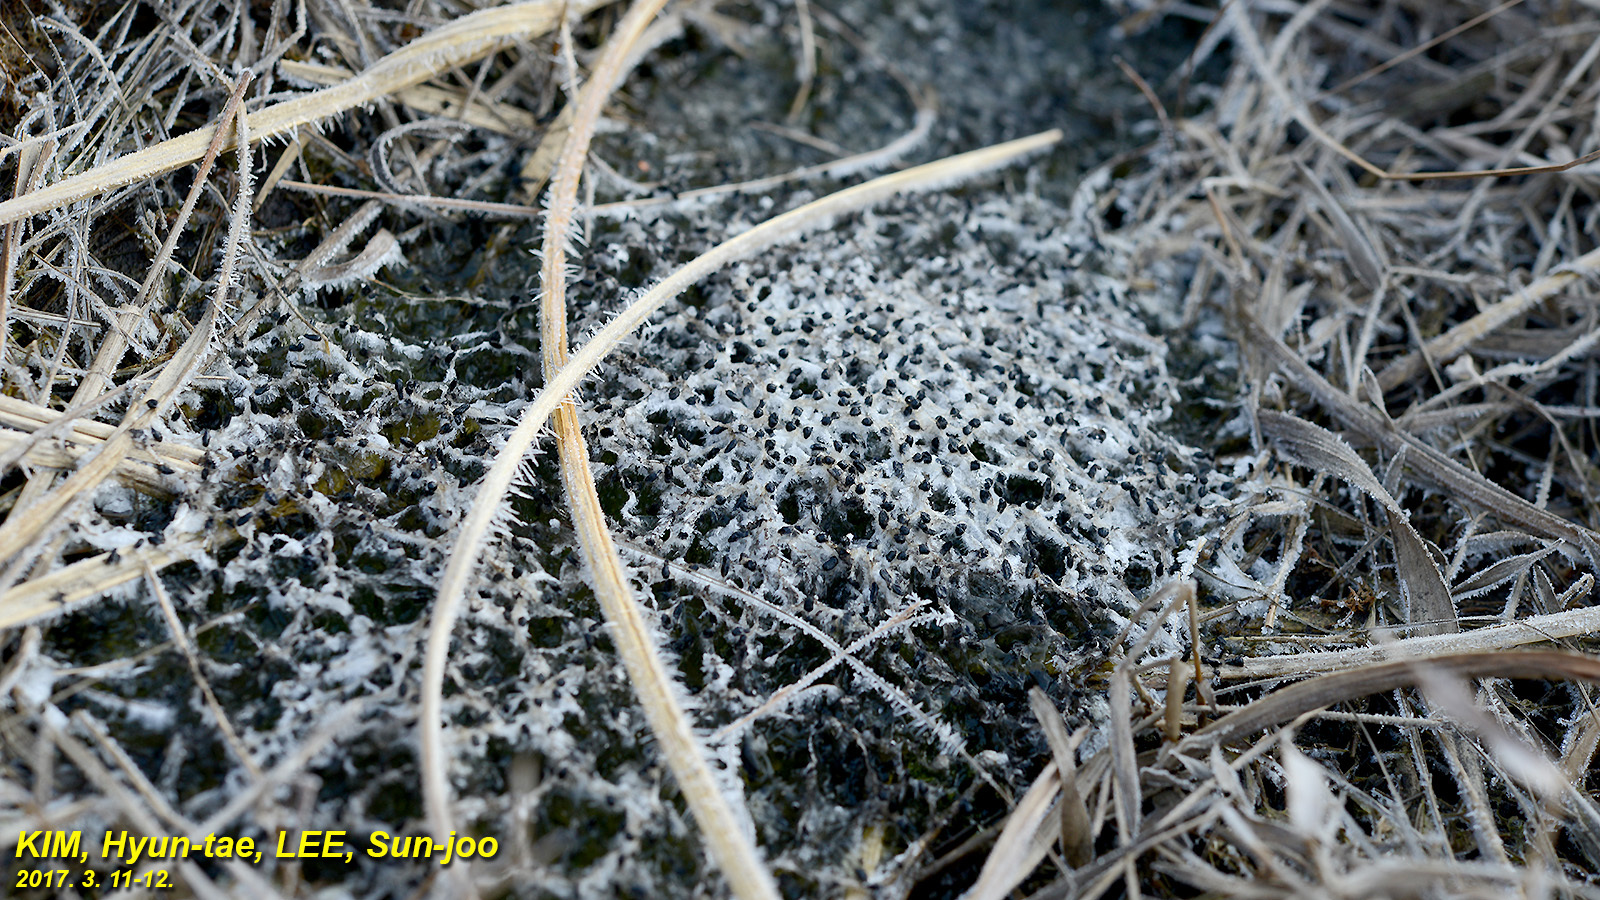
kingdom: Animalia
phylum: Chordata
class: Amphibia
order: Anura
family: Ranidae
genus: Rana
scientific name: Rana uenoi
